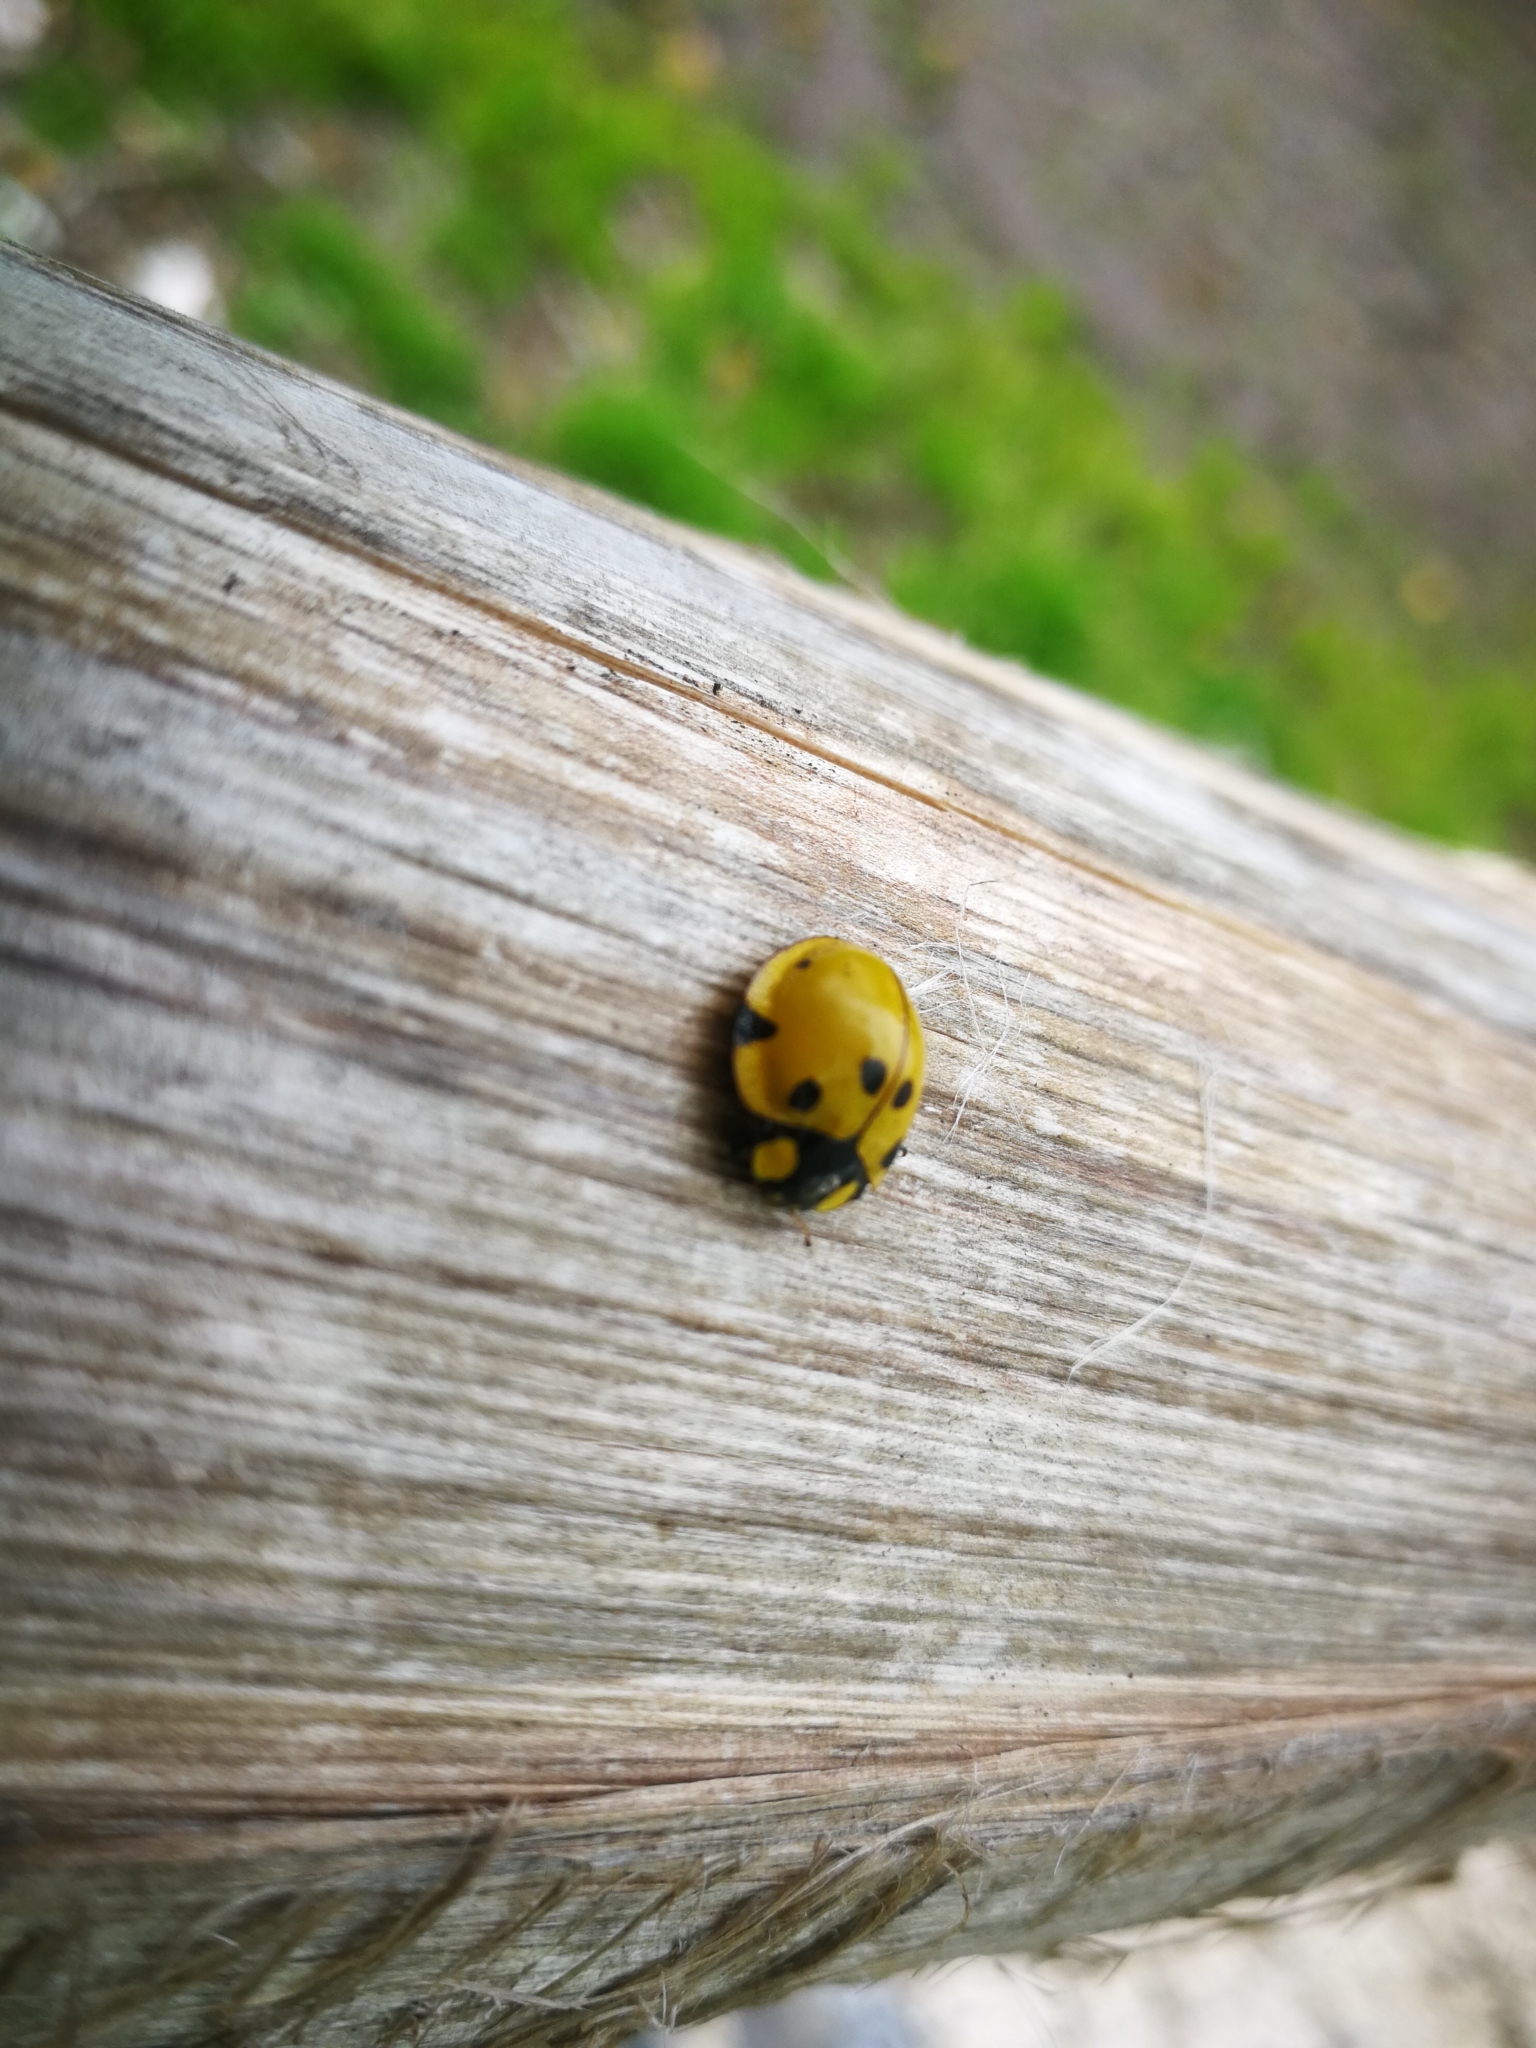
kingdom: Animalia
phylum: Arthropoda
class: Insecta
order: Coleoptera
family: Coccinellidae
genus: Neda
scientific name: Neda norrisi
